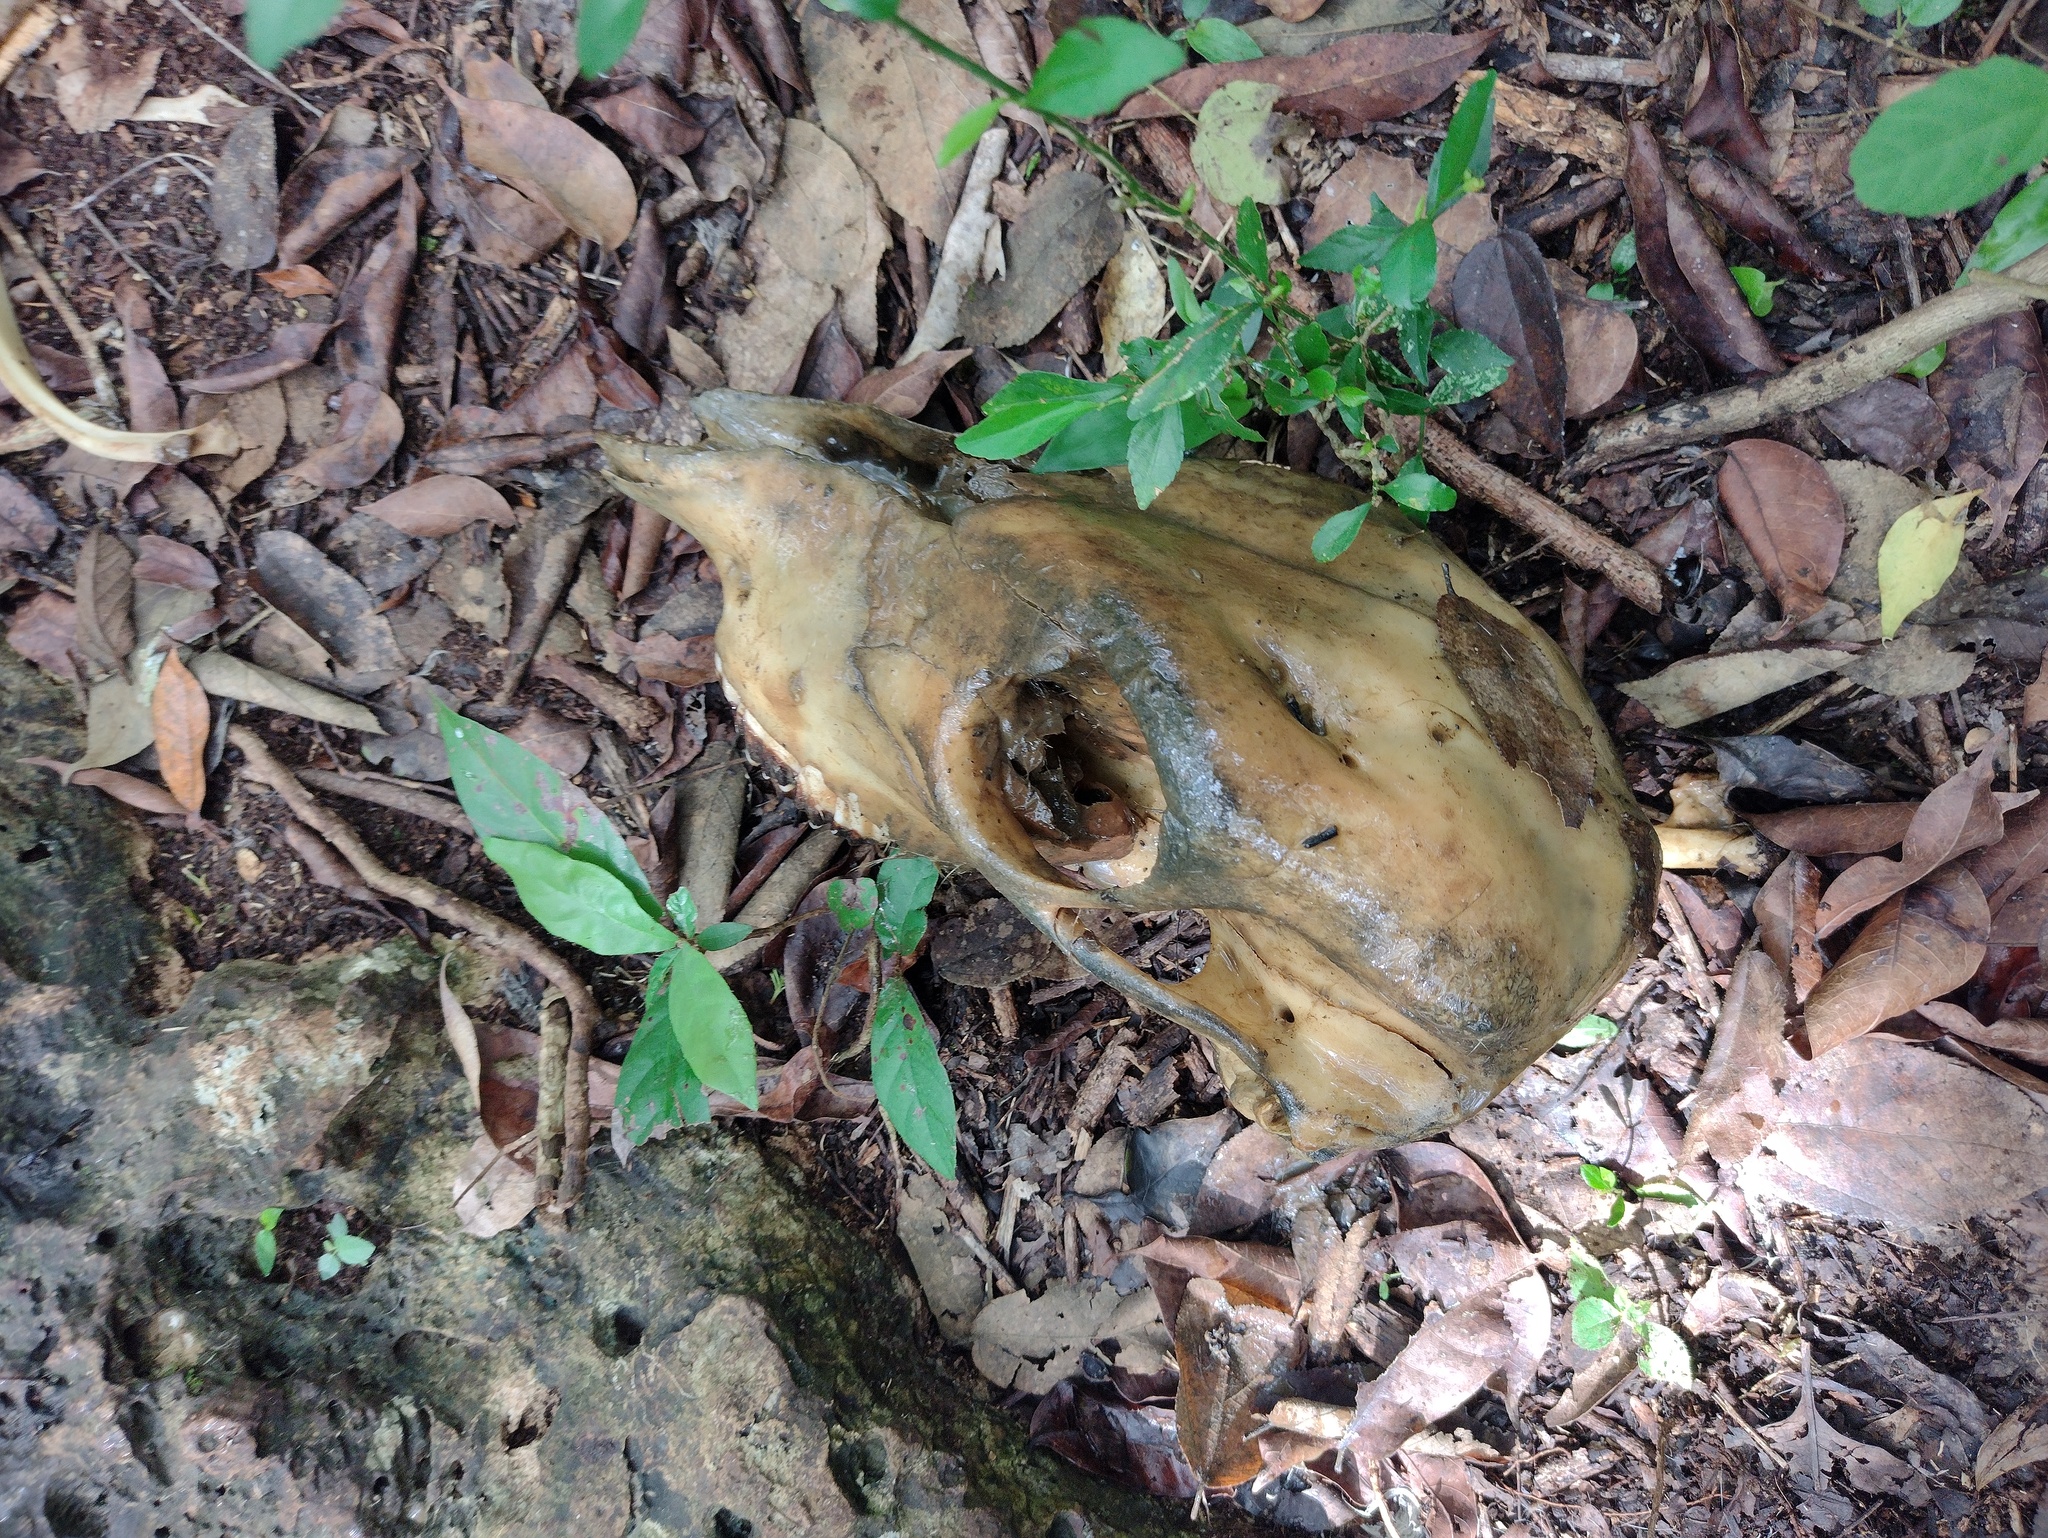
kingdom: Animalia
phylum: Chordata
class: Mammalia
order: Artiodactyla
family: Bovidae
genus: Capra
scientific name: Capra hircus
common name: Domestic goat
